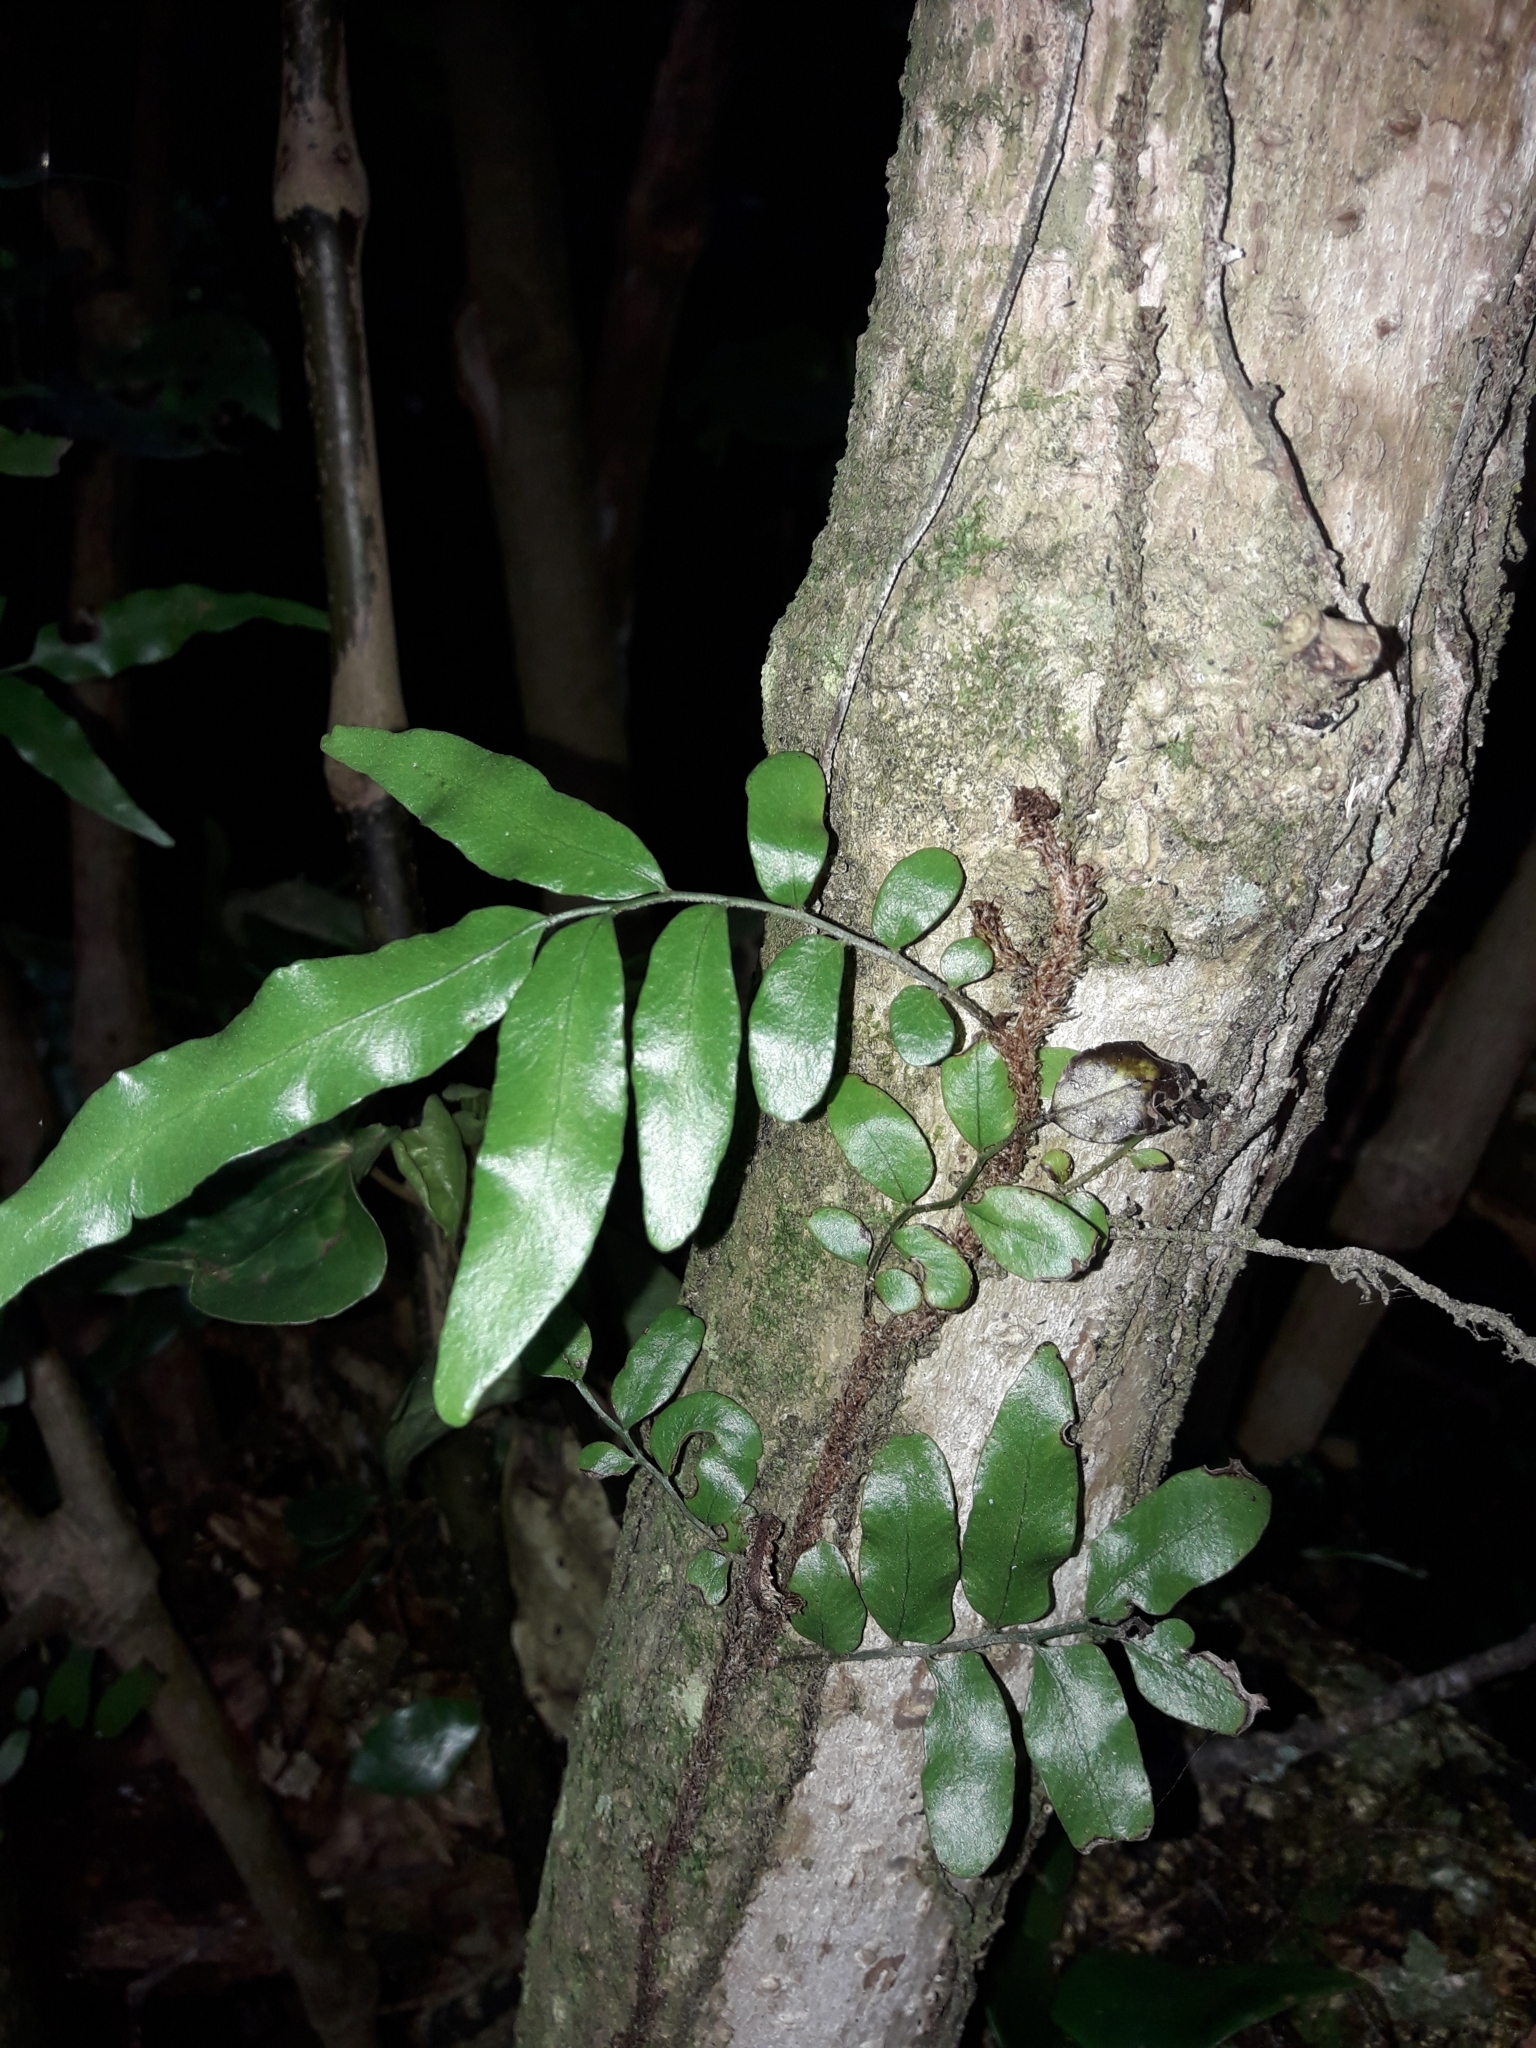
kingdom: Plantae
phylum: Tracheophyta
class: Polypodiopsida
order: Polypodiales
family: Tectariaceae
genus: Arthropteris
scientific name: Arthropteris tenella
